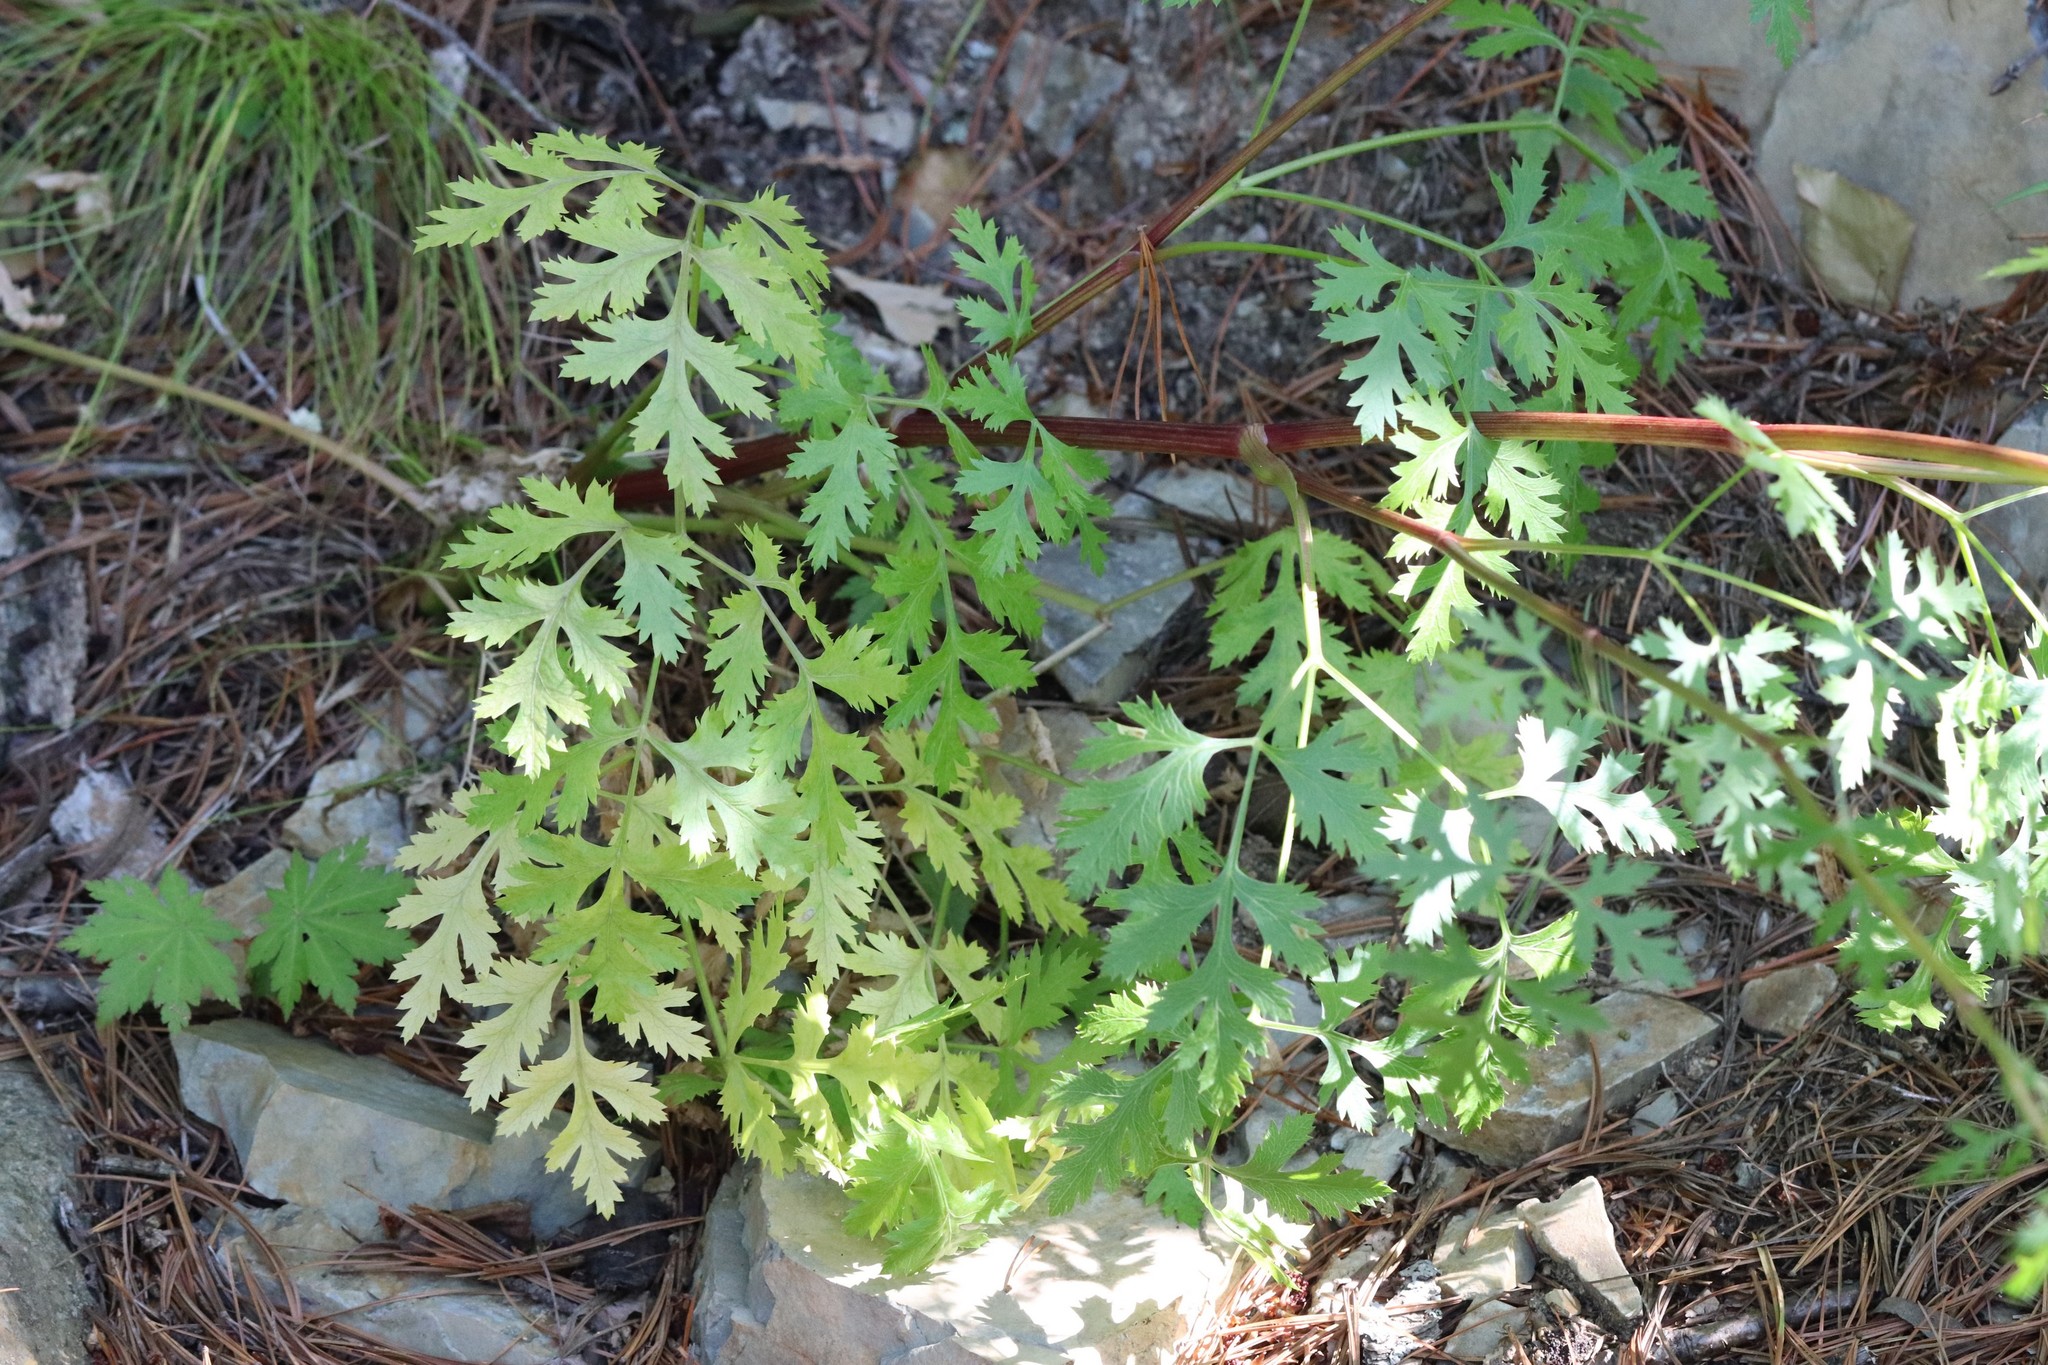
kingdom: Plantae
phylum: Tracheophyta
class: Magnoliopsida
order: Apiales
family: Apiaceae
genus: Kitagawia
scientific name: Kitagawia terebinthacea
